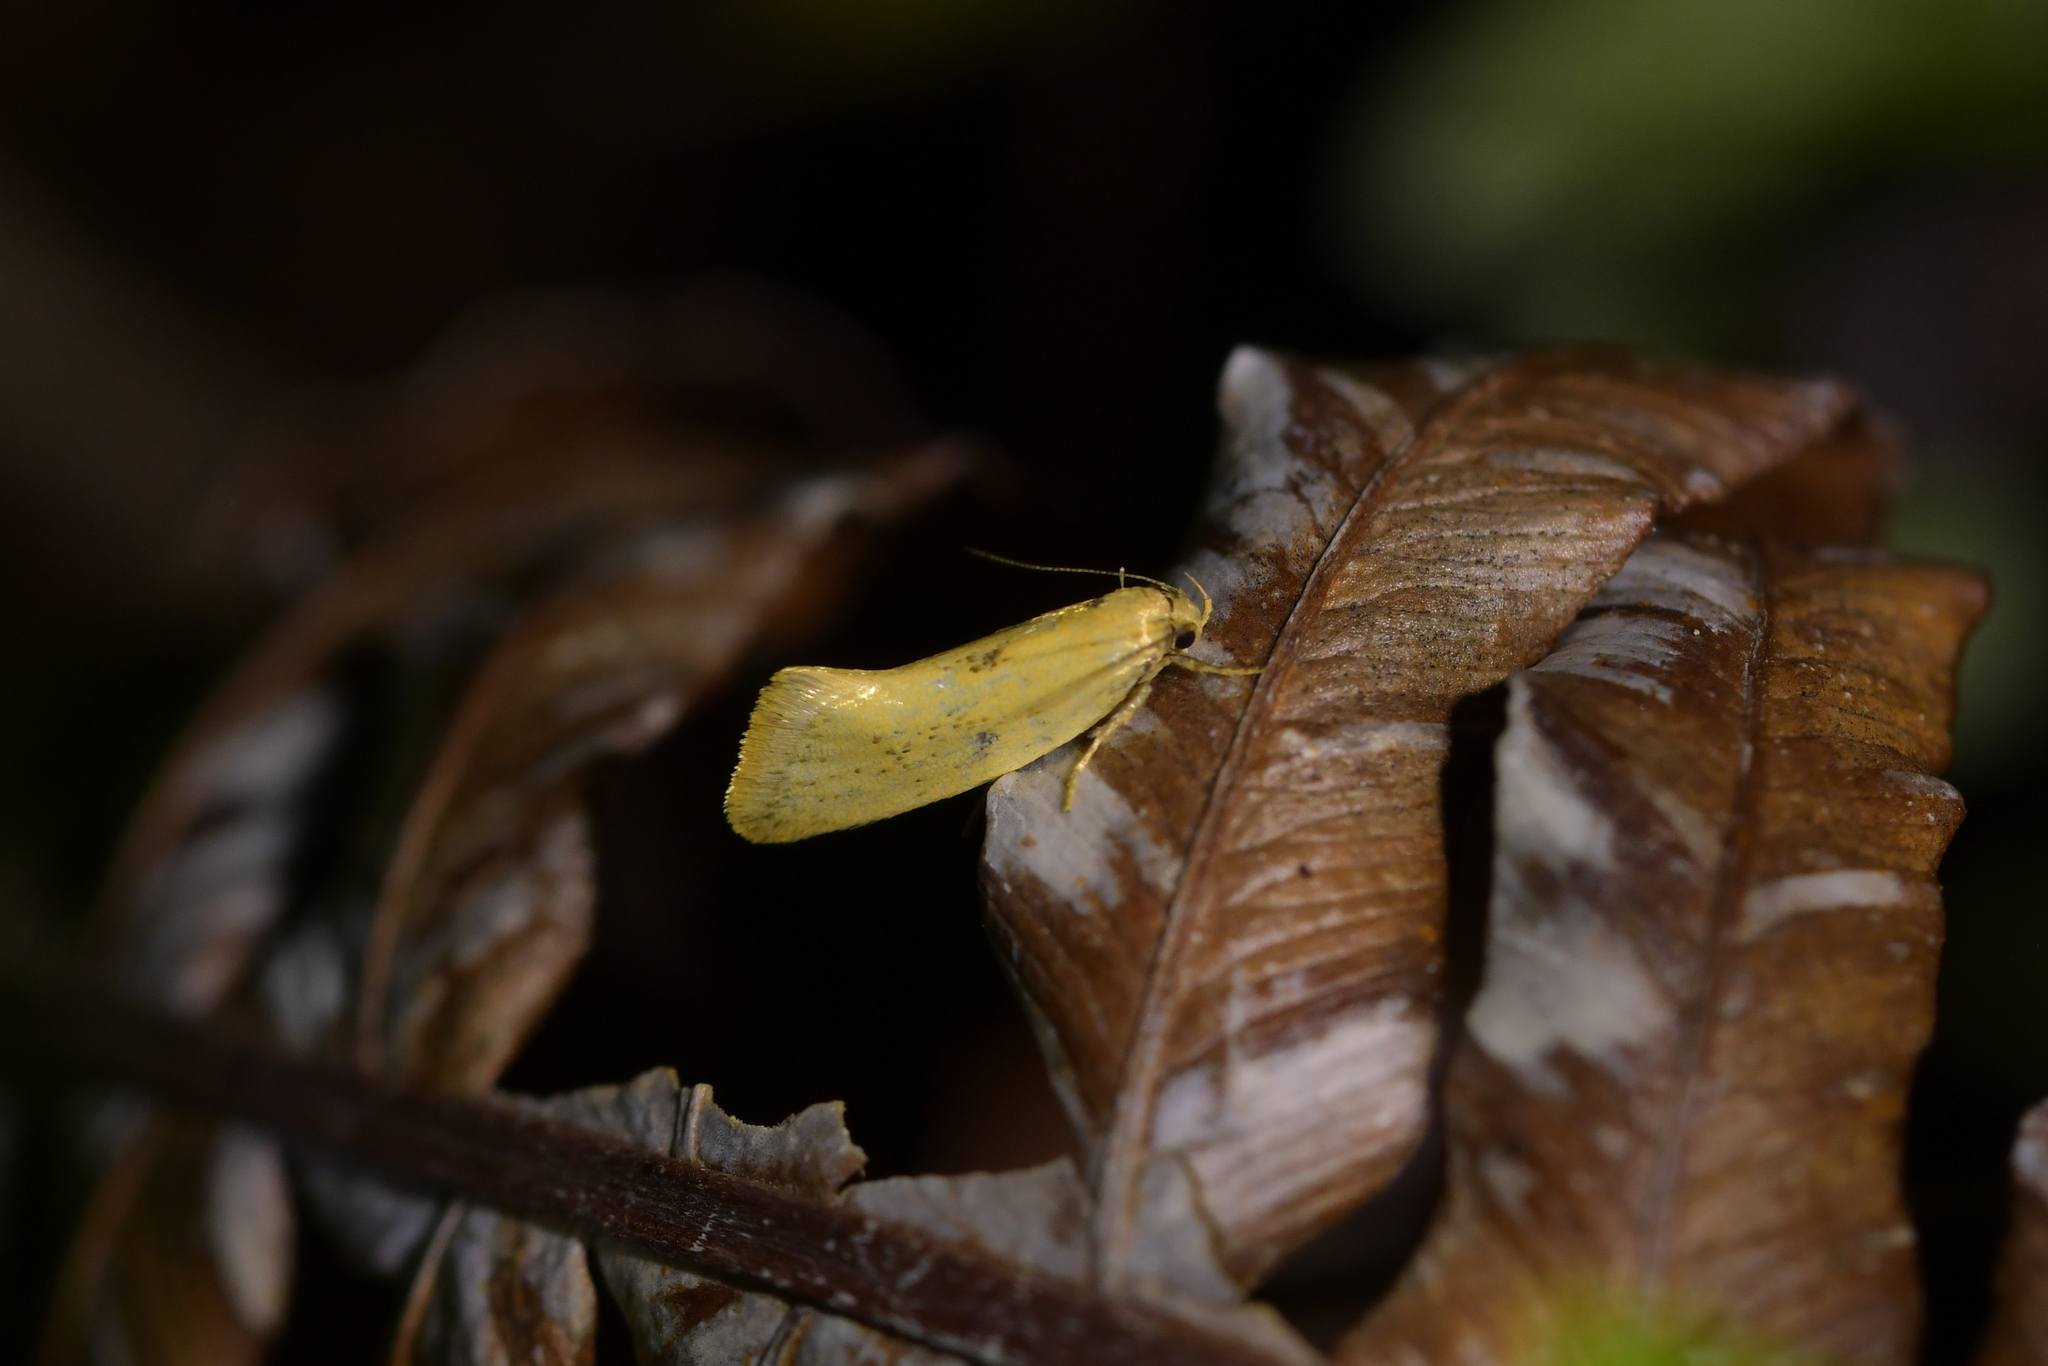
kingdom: Animalia
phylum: Arthropoda
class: Insecta
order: Lepidoptera
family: Oecophoridae
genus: Tingena
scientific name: Tingena armigerella
